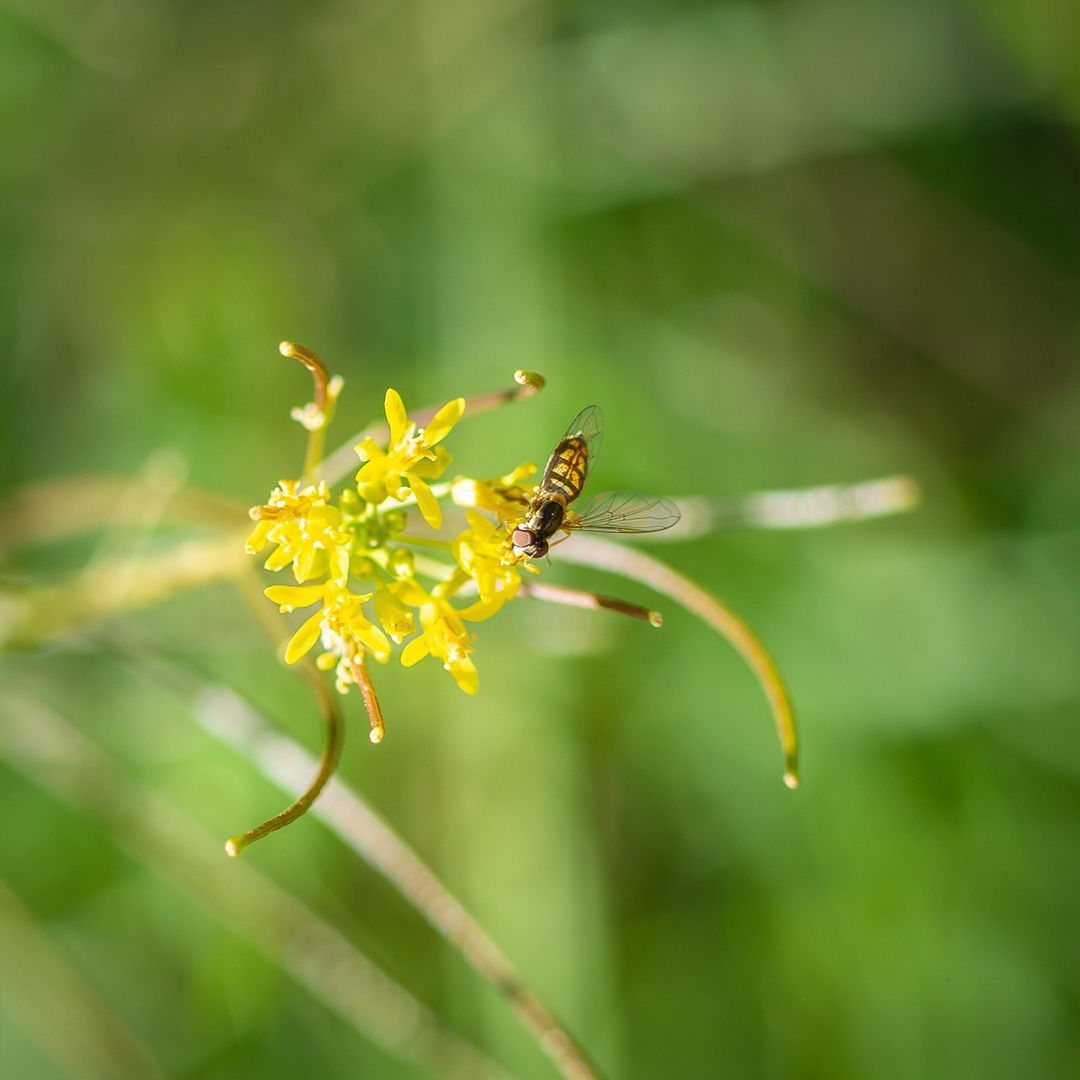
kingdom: Animalia
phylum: Arthropoda
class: Insecta
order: Diptera
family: Syrphidae
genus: Toxomerus
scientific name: Toxomerus marginatus
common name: Syrphid fly
